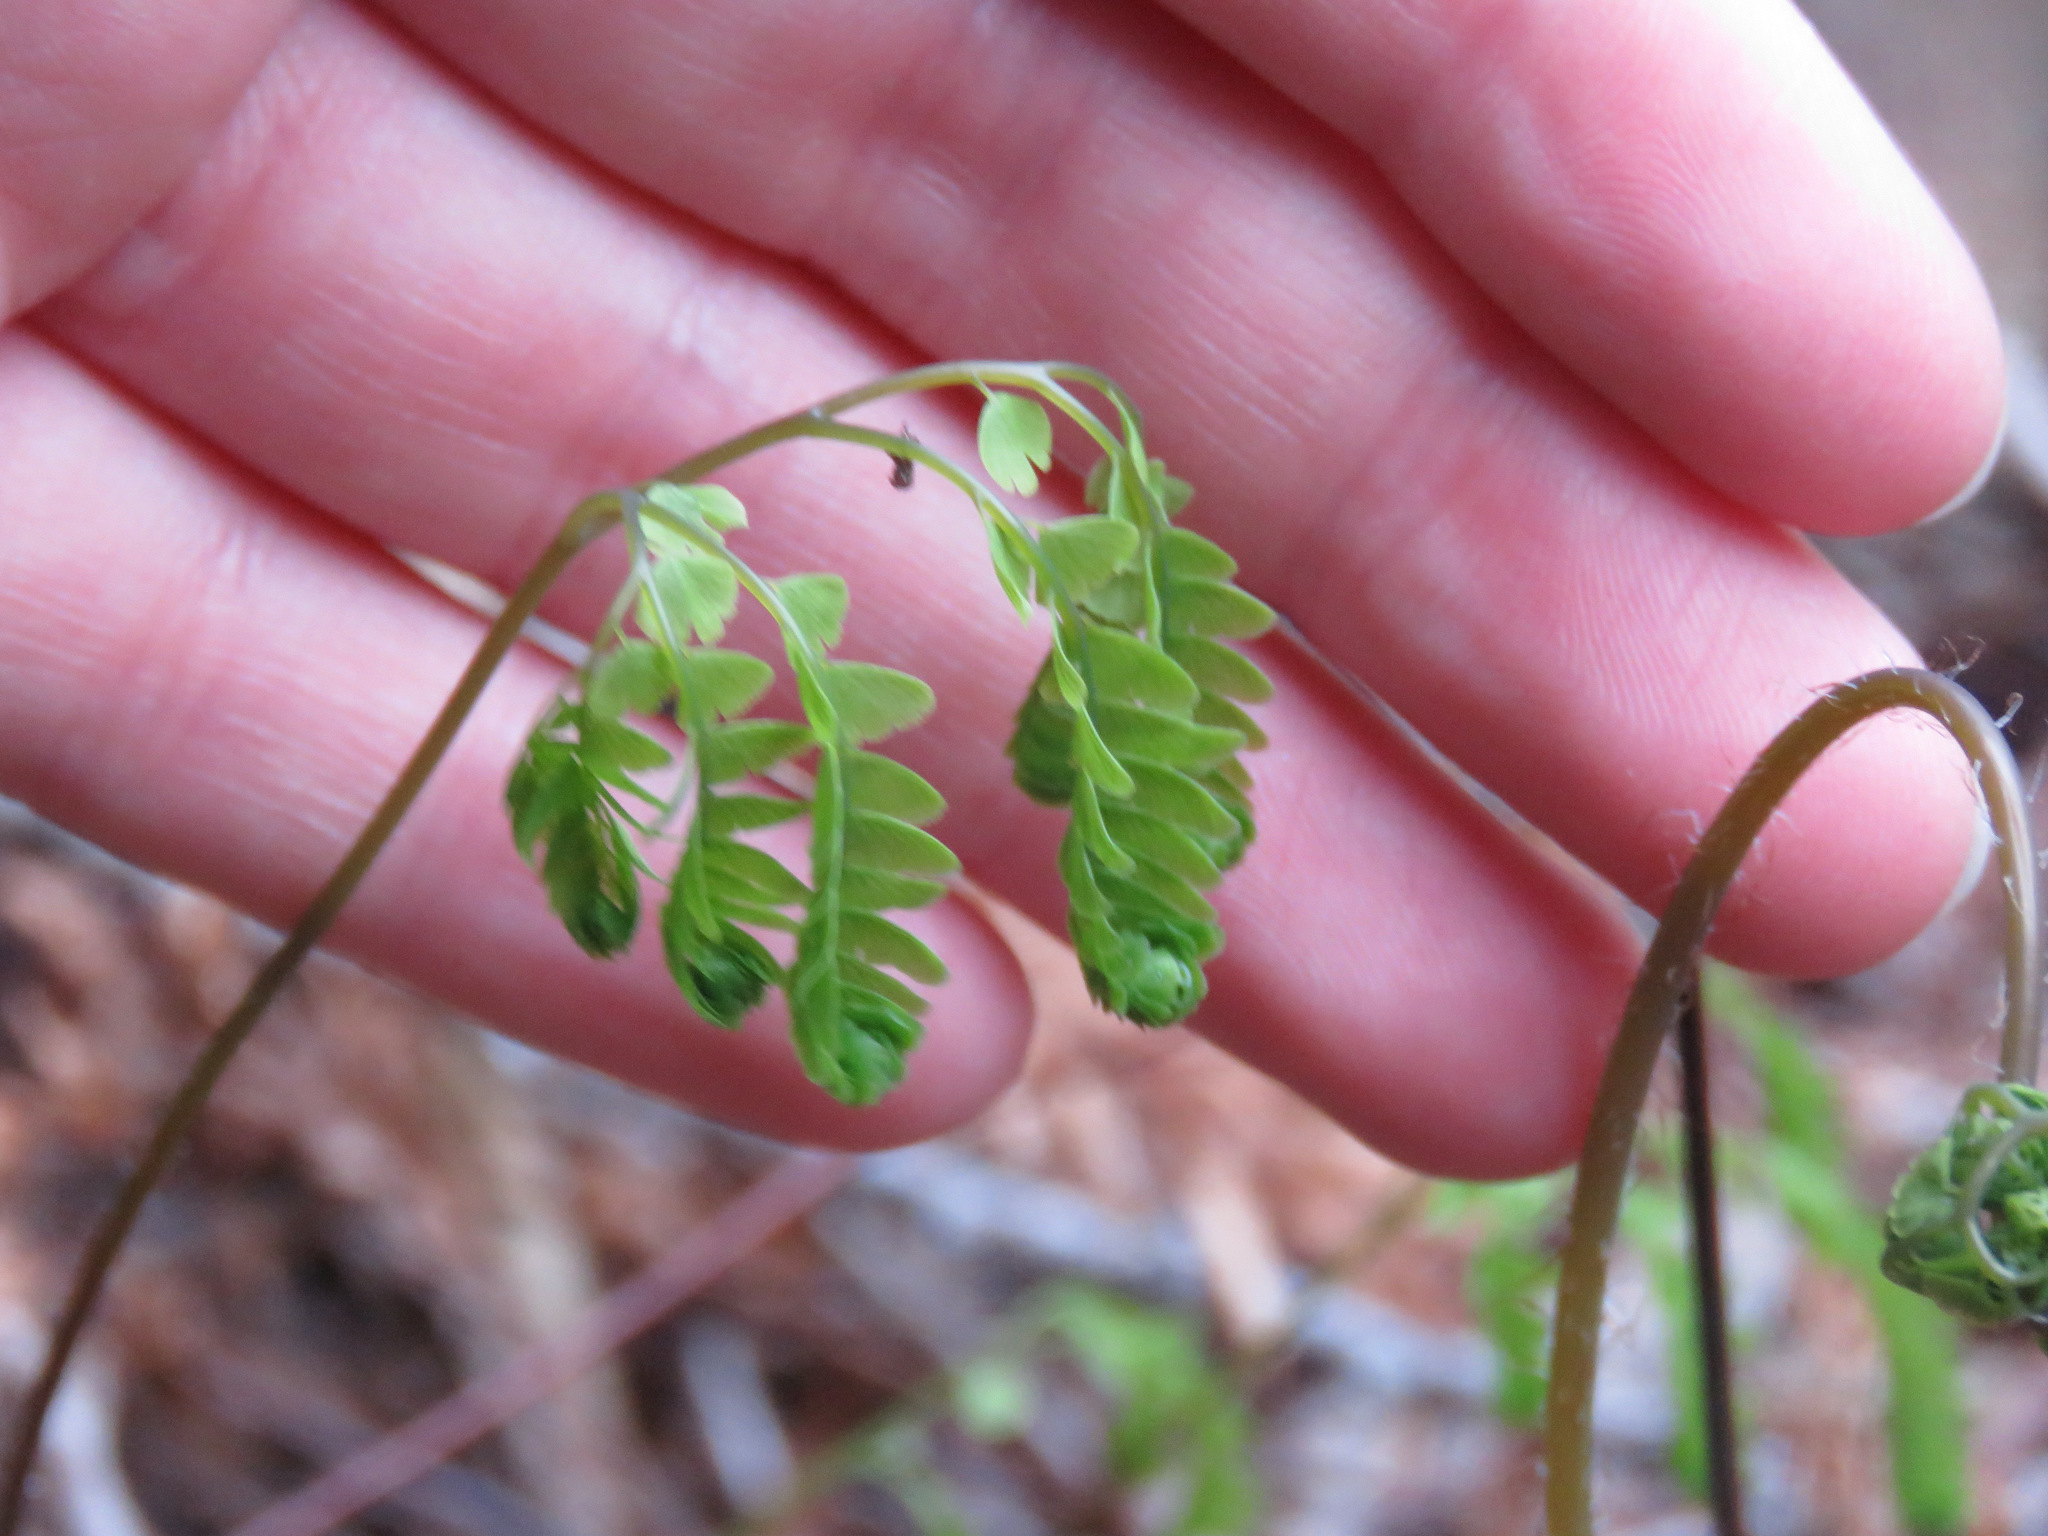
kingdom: Plantae
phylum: Tracheophyta
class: Polypodiopsida
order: Polypodiales
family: Pteridaceae
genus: Adiantum
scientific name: Adiantum aleuticum
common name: Aleutian maidenhair fern
